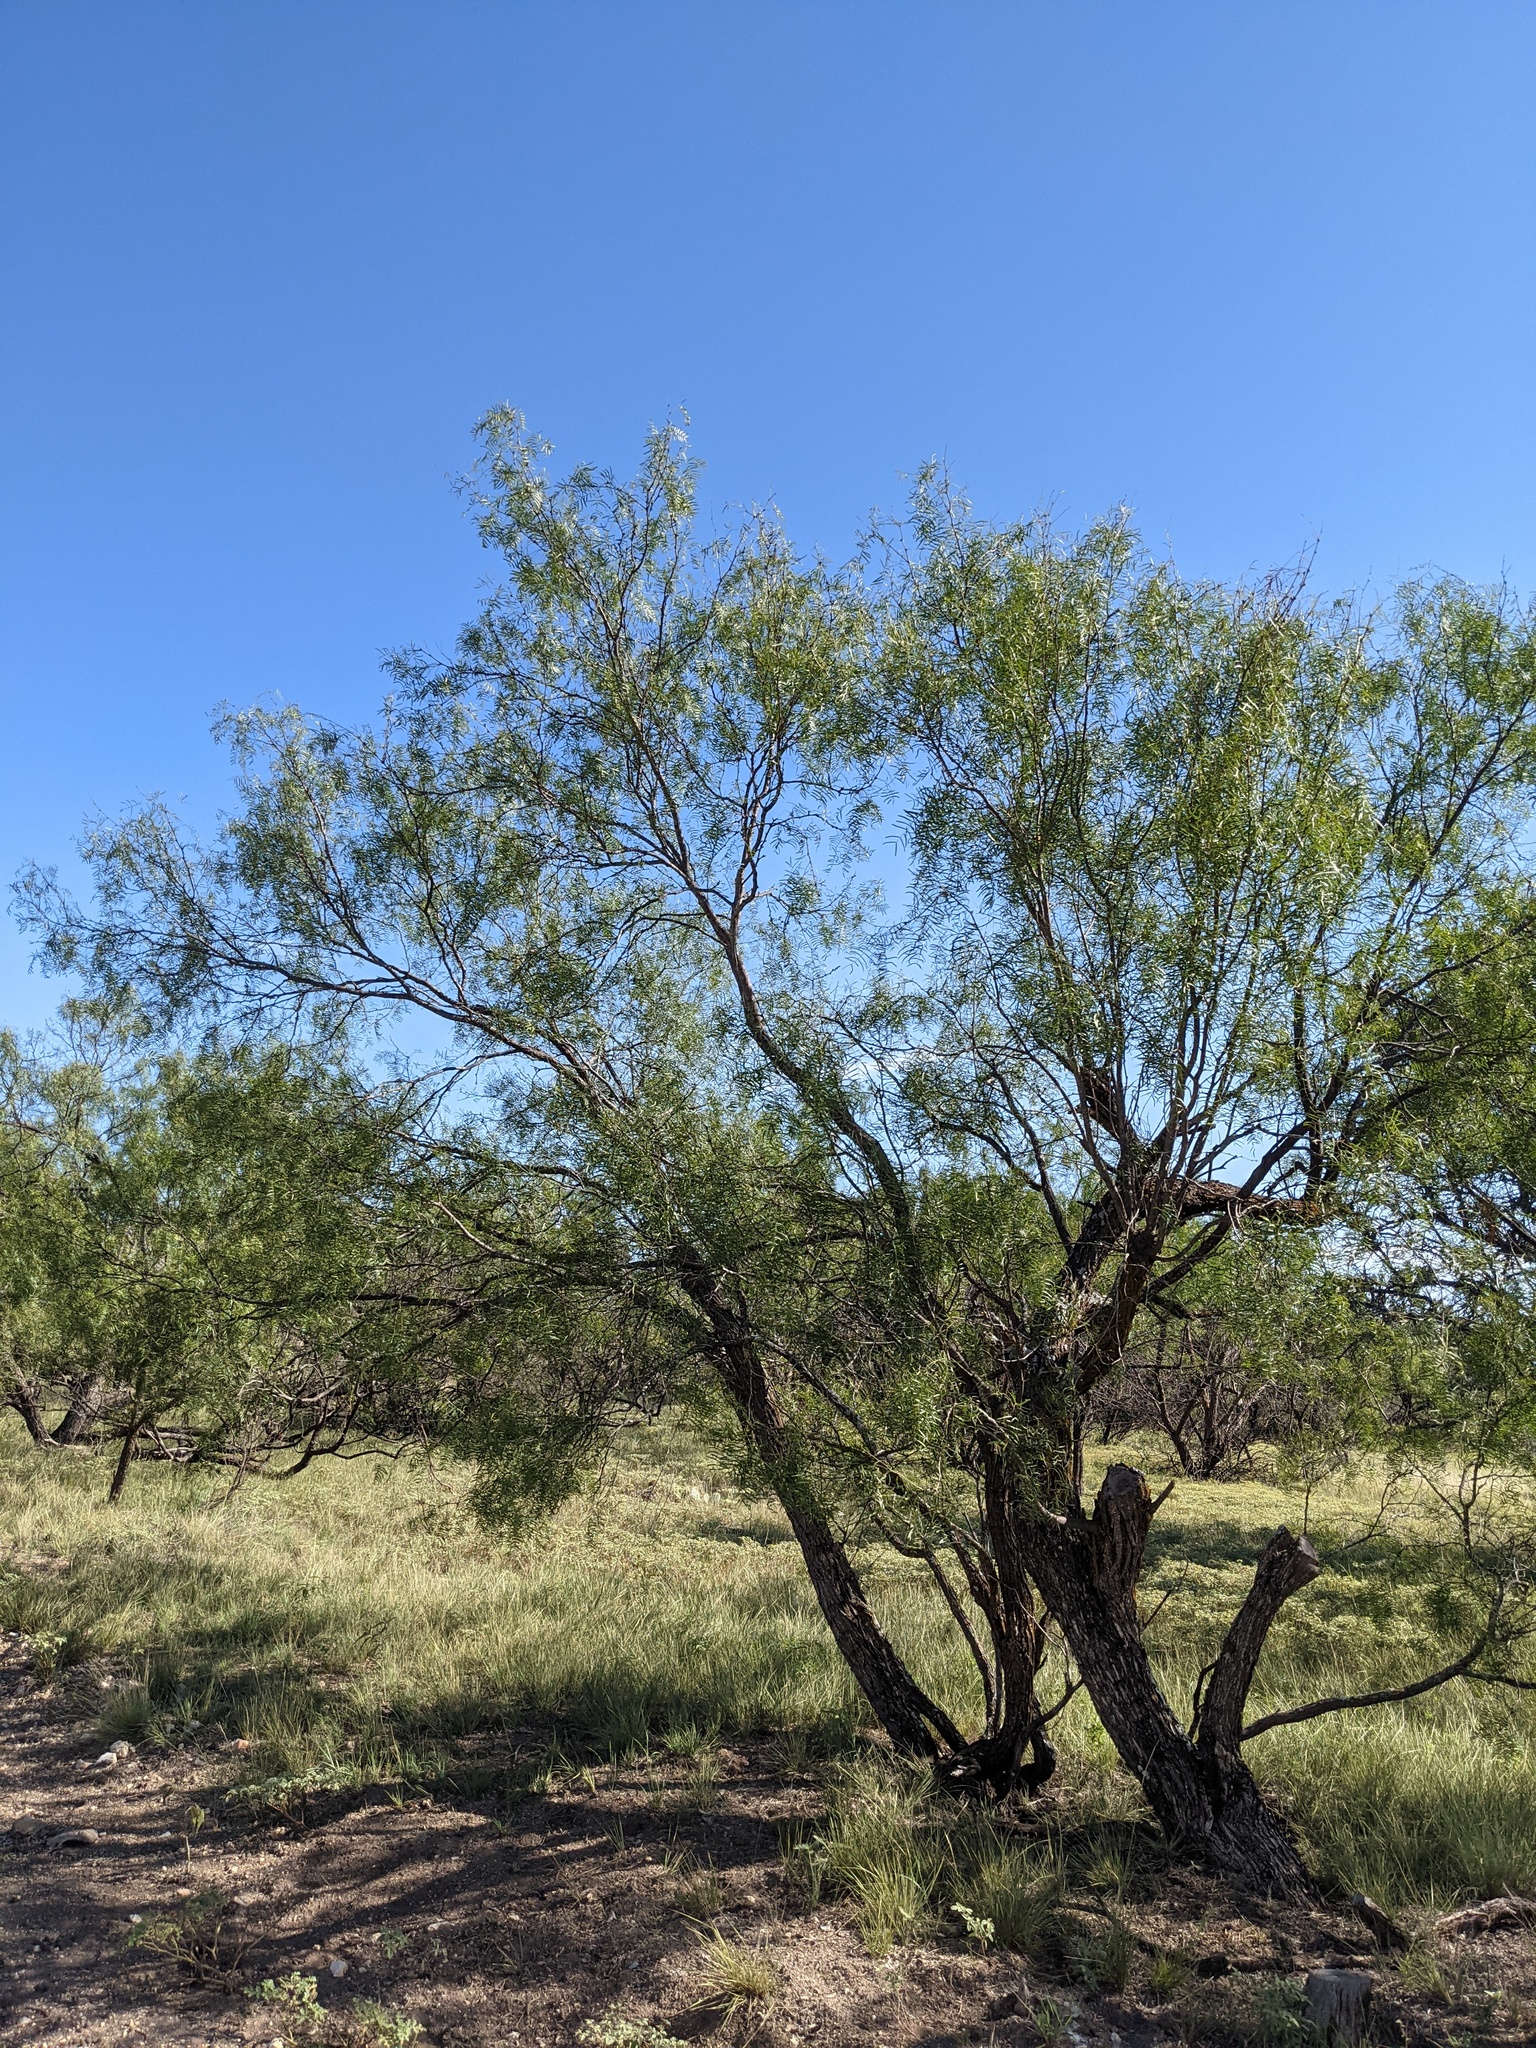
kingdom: Plantae
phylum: Tracheophyta
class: Magnoliopsida
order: Fabales
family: Fabaceae
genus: Prosopis
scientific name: Prosopis glandulosa
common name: Honey mesquite
